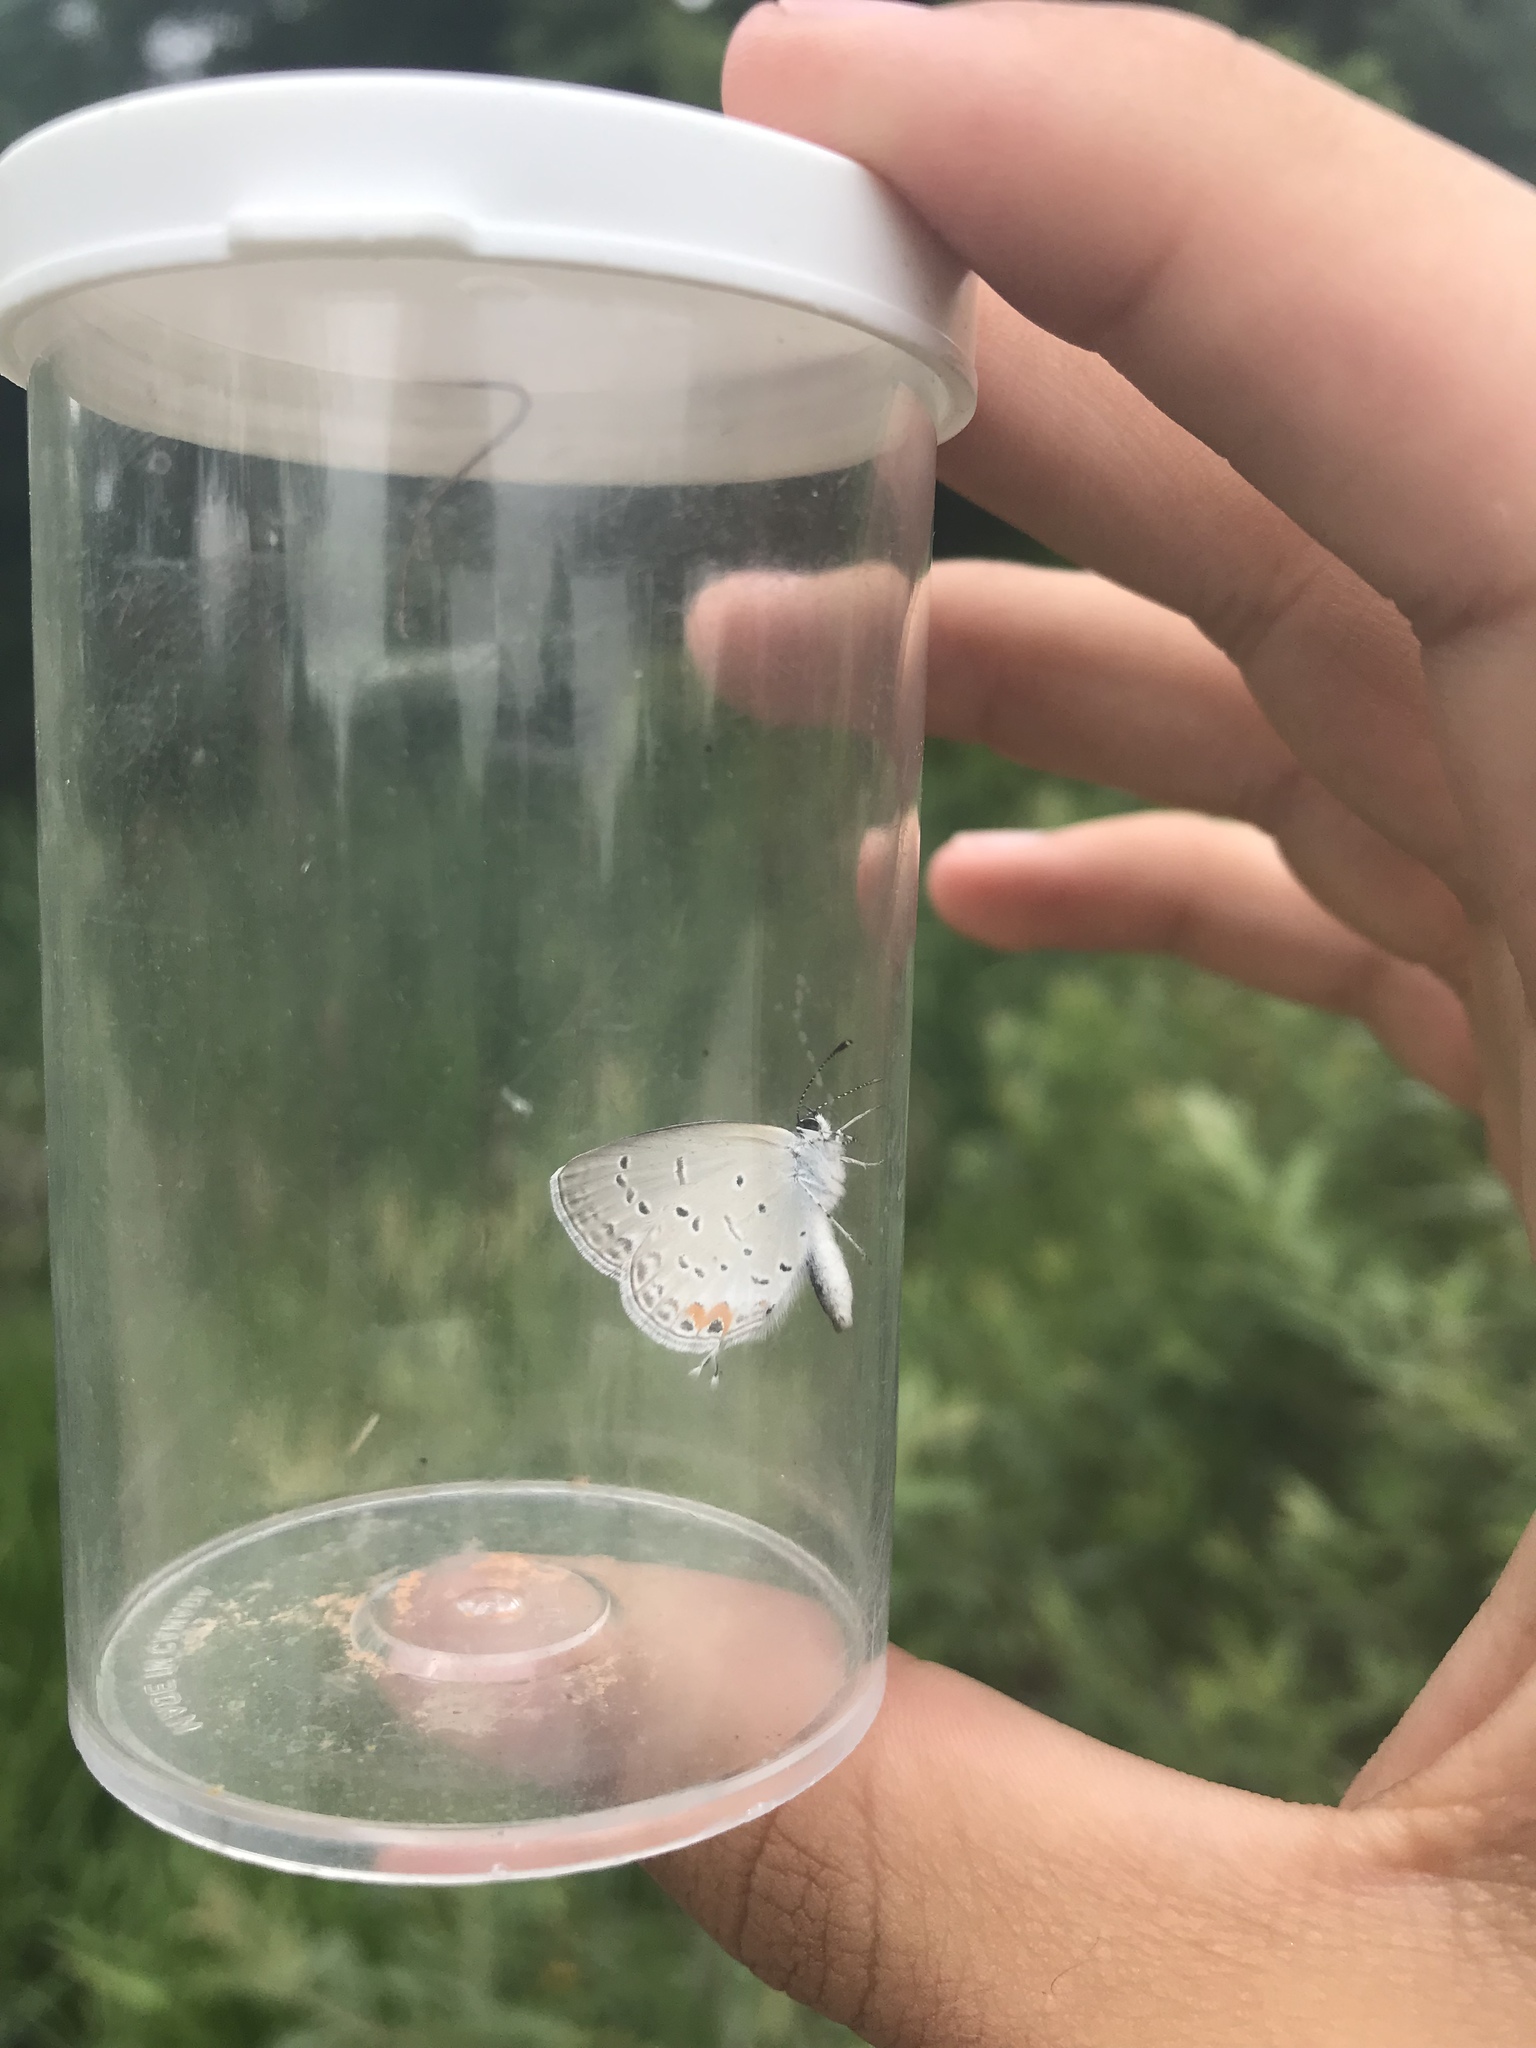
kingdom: Animalia
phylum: Arthropoda
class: Insecta
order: Lepidoptera
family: Lycaenidae
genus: Elkalyce
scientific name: Elkalyce comyntas
